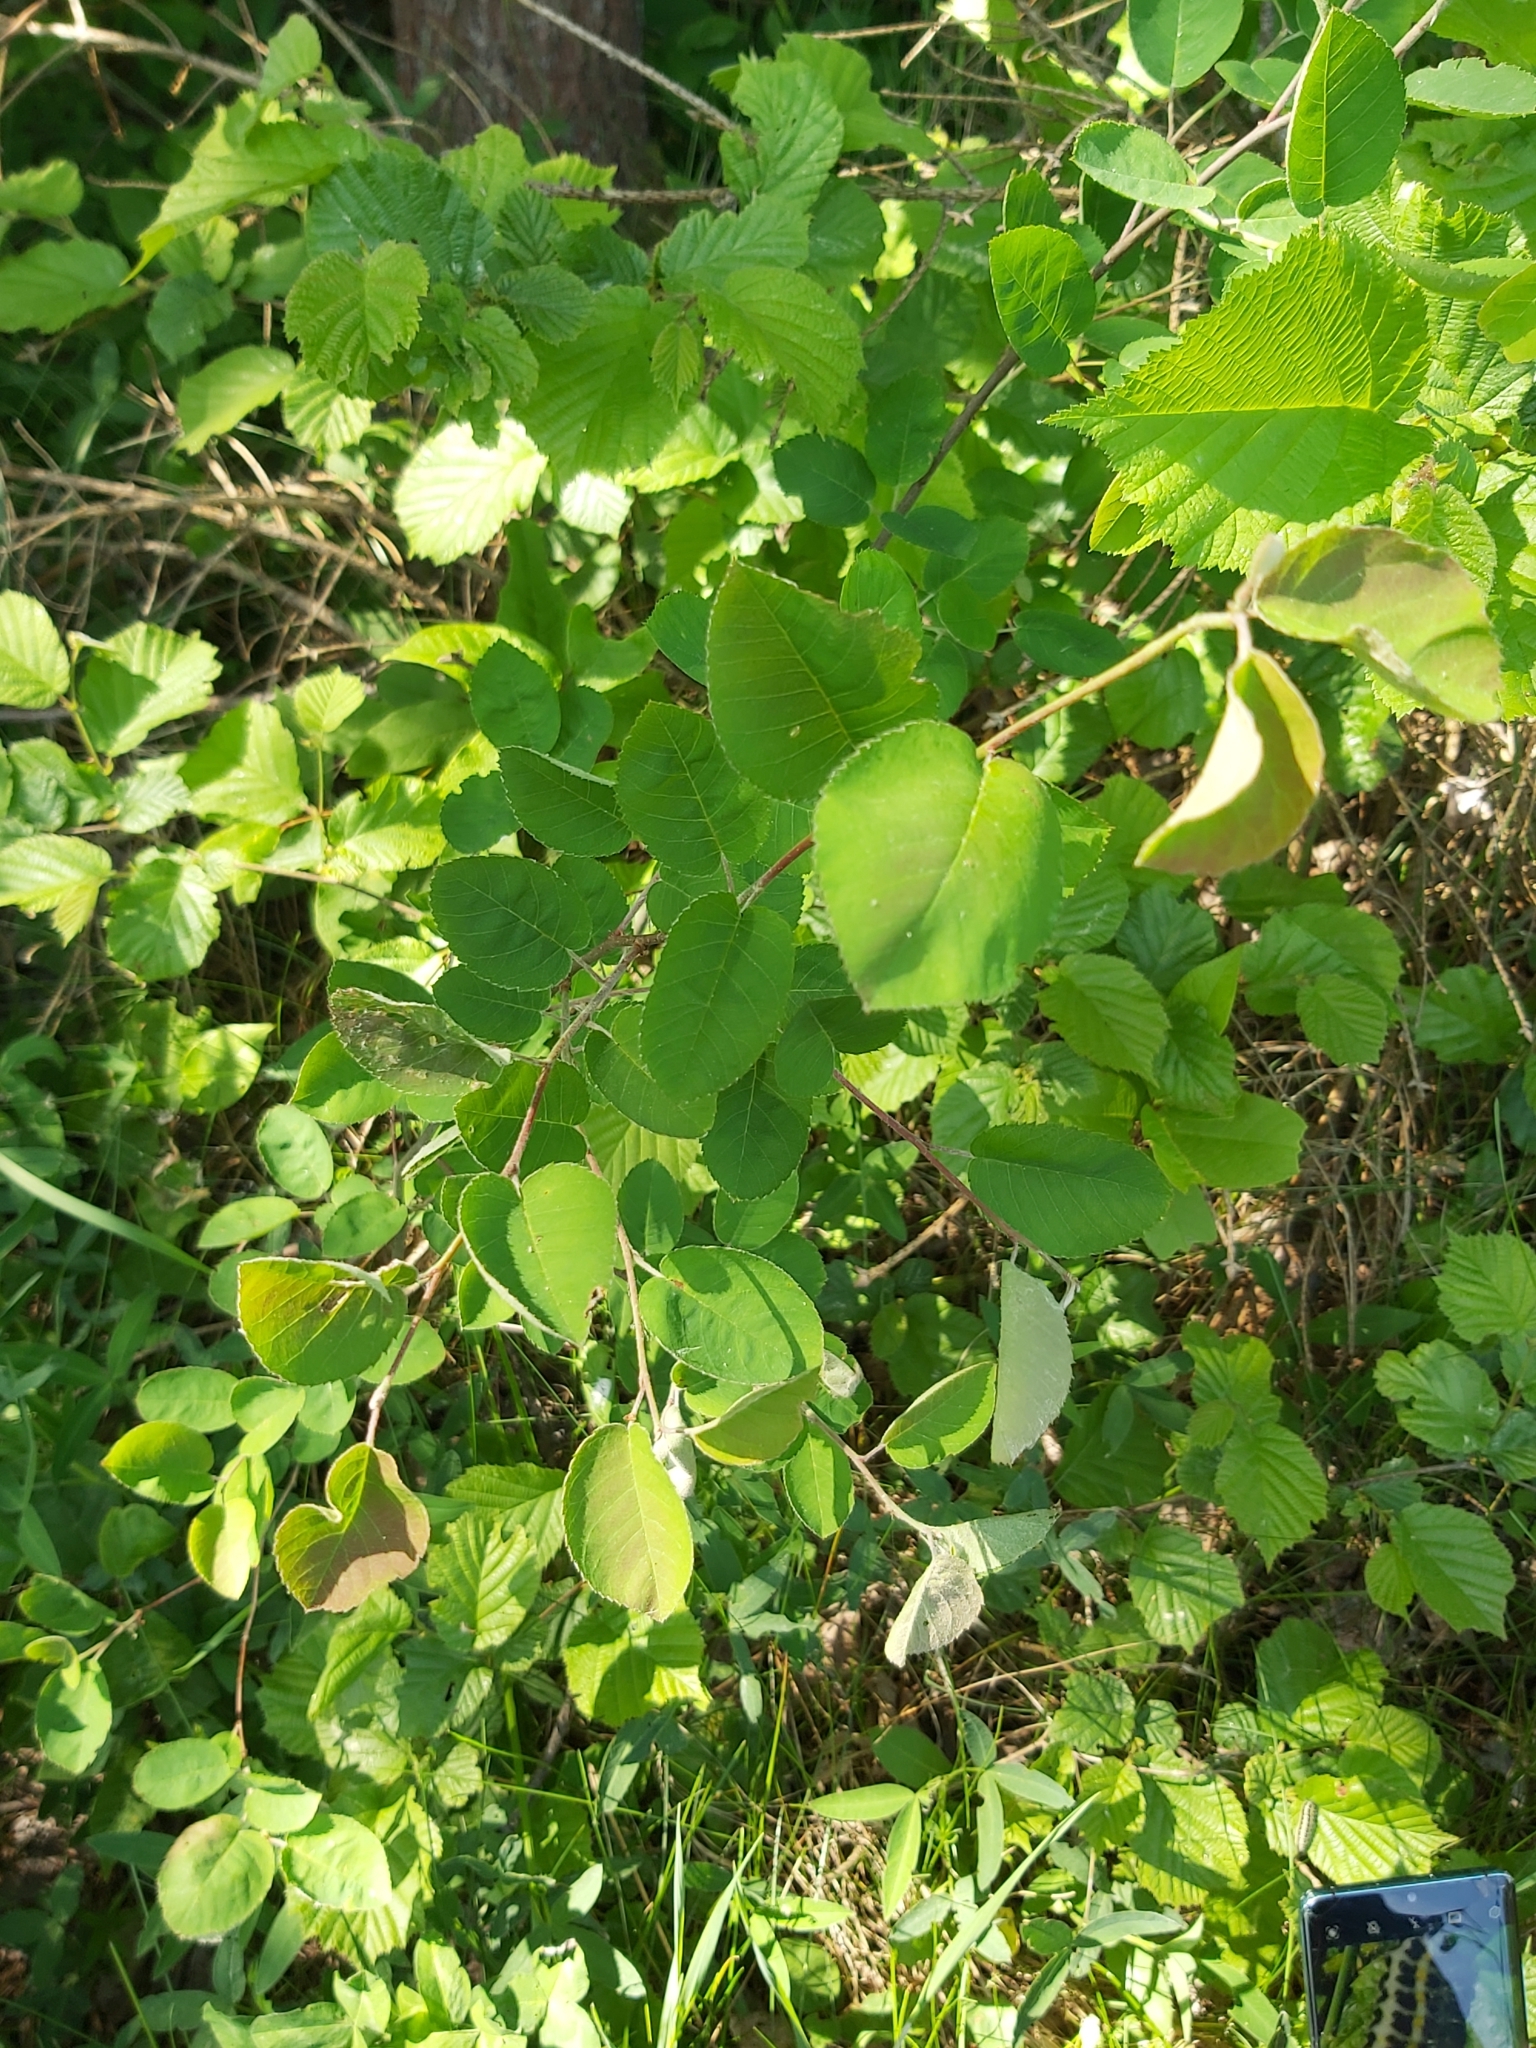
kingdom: Plantae
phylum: Tracheophyta
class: Magnoliopsida
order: Rosales
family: Rosaceae
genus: Amelanchier
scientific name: Amelanchier
